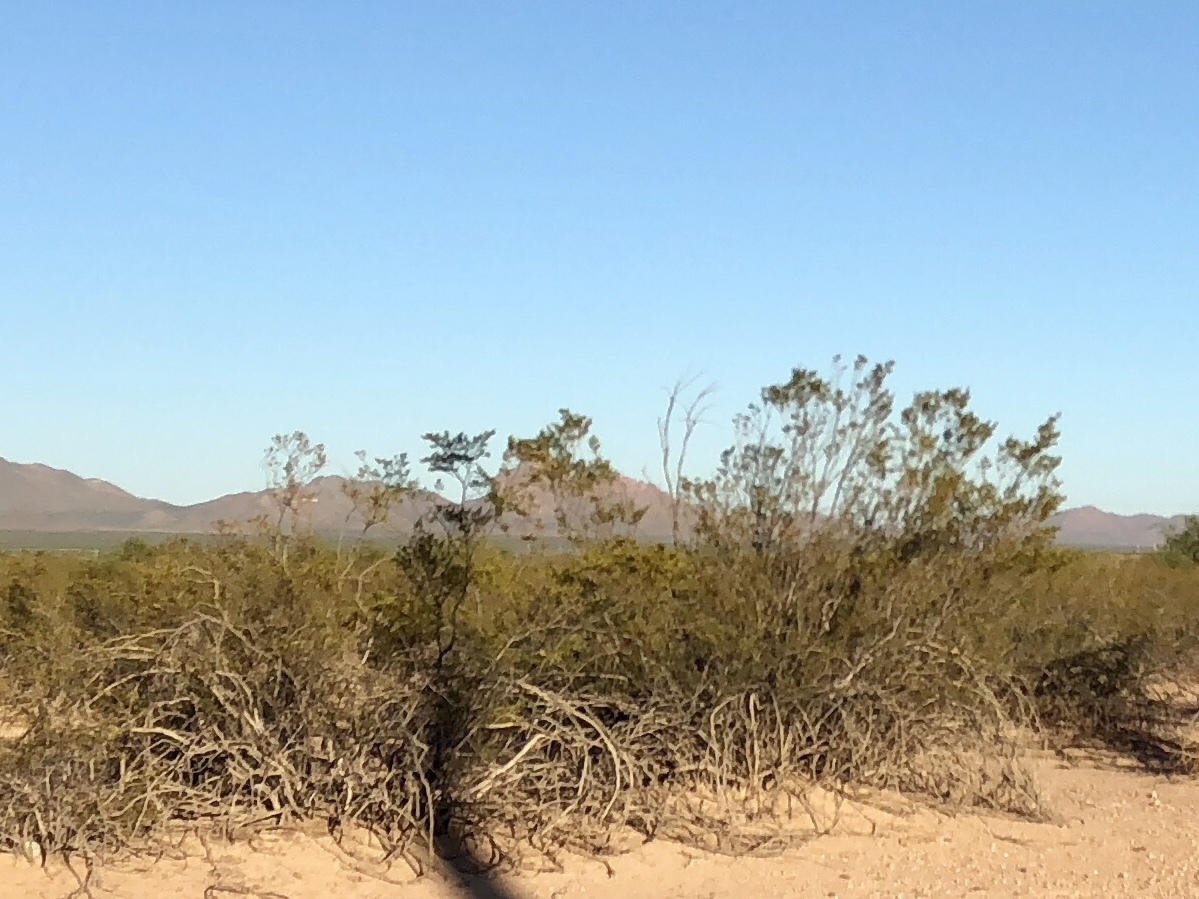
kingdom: Plantae
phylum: Tracheophyta
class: Magnoliopsida
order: Zygophyllales
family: Zygophyllaceae
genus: Larrea
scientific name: Larrea tridentata
